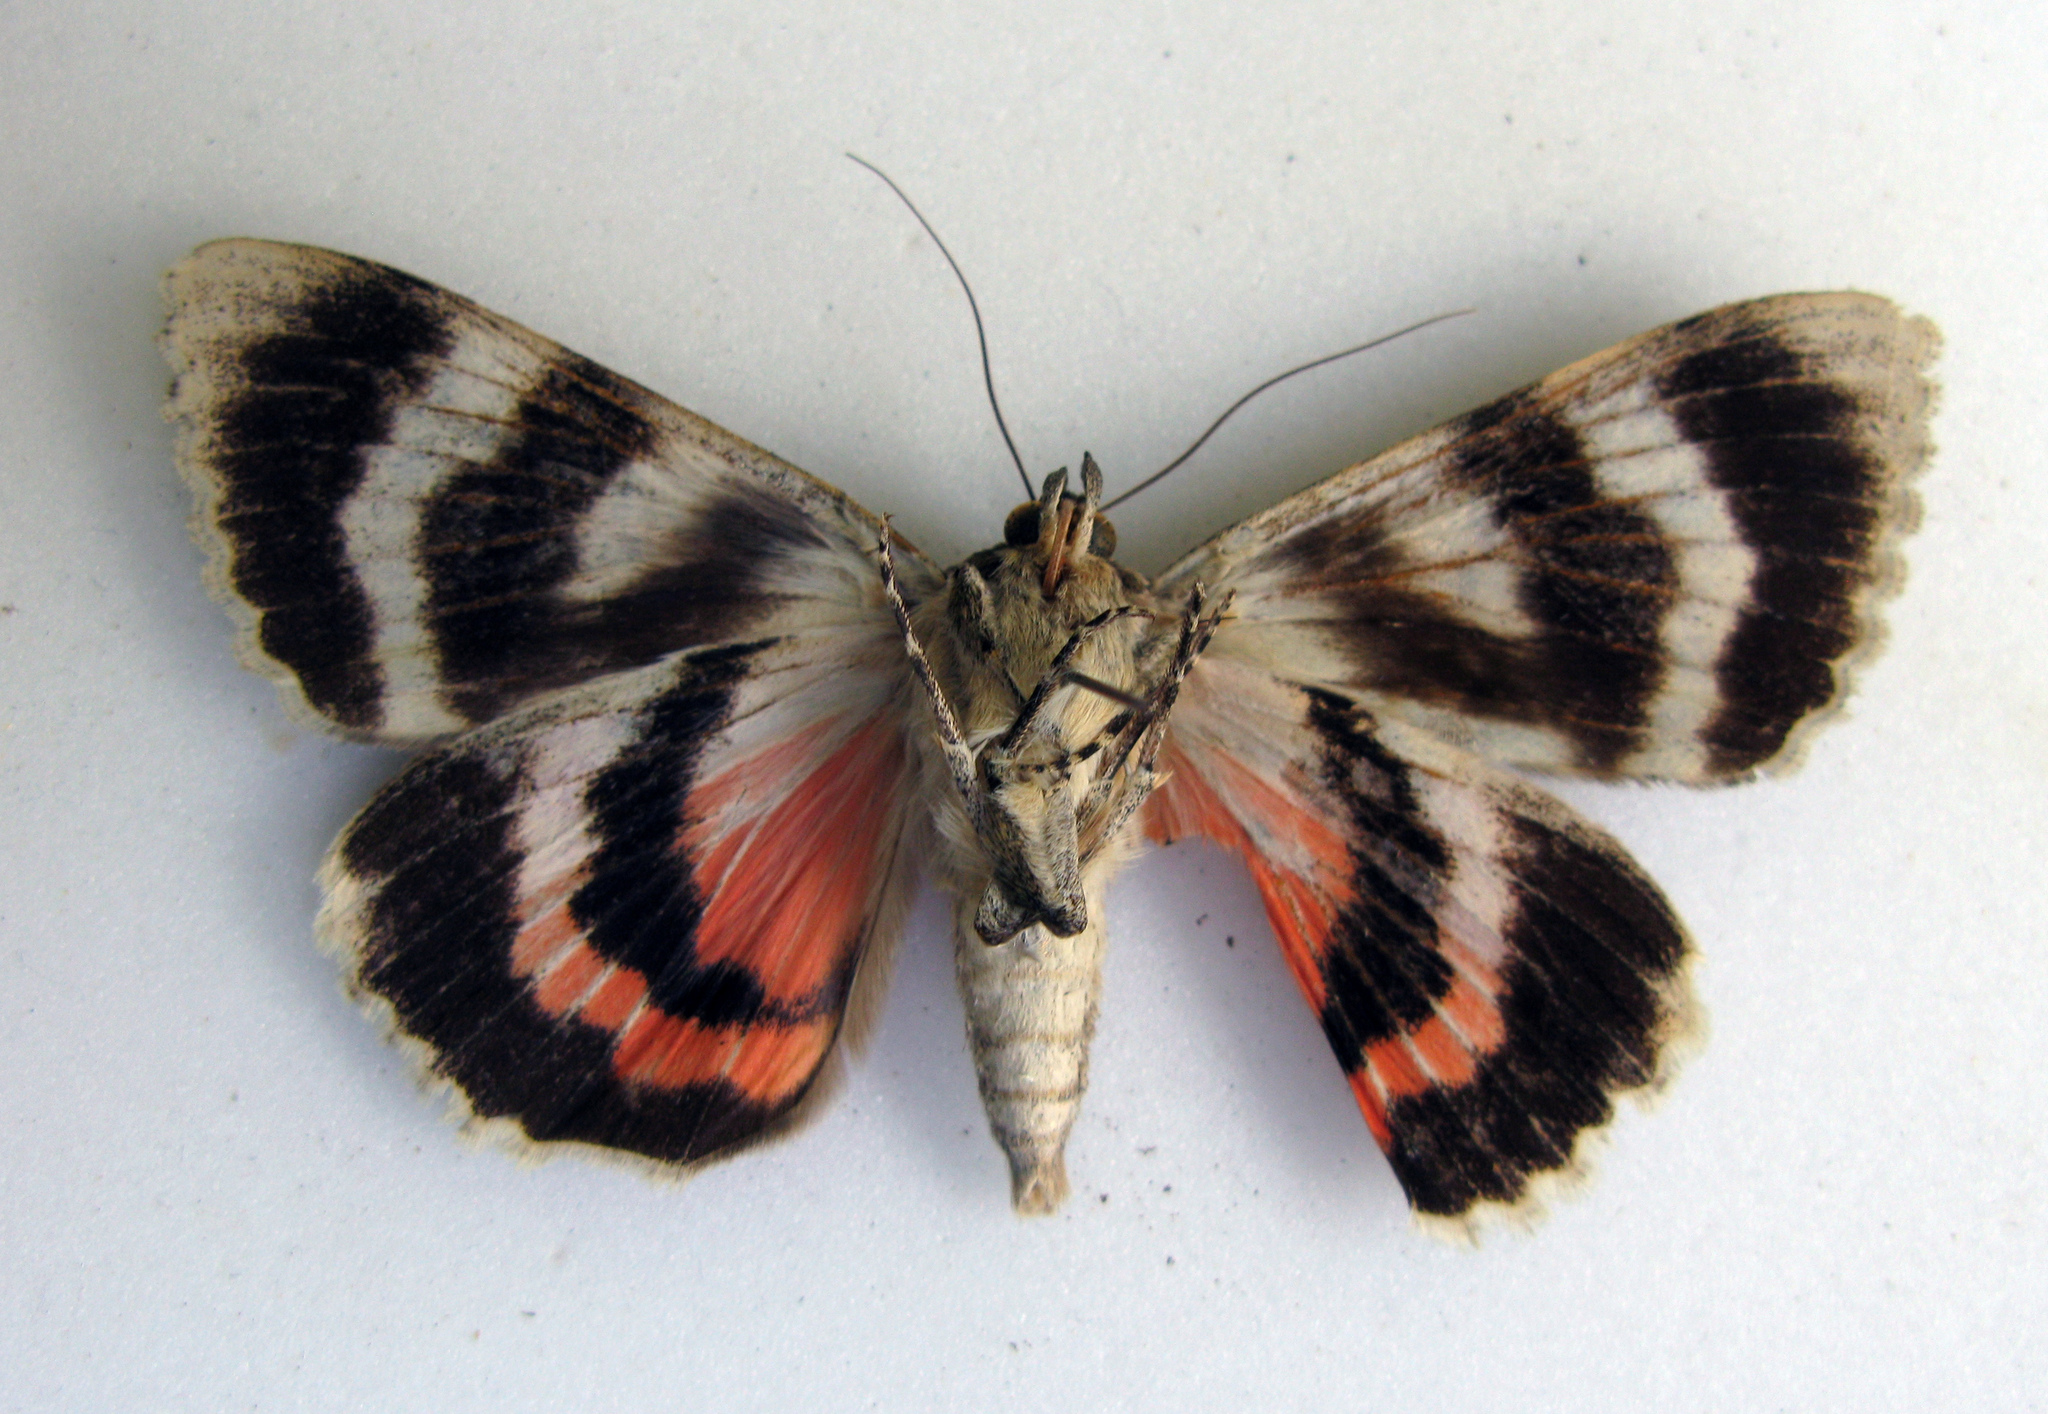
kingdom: Animalia
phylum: Arthropoda
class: Insecta
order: Lepidoptera
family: Erebidae
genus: Catocala
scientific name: Catocala elocata
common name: French red underwing
